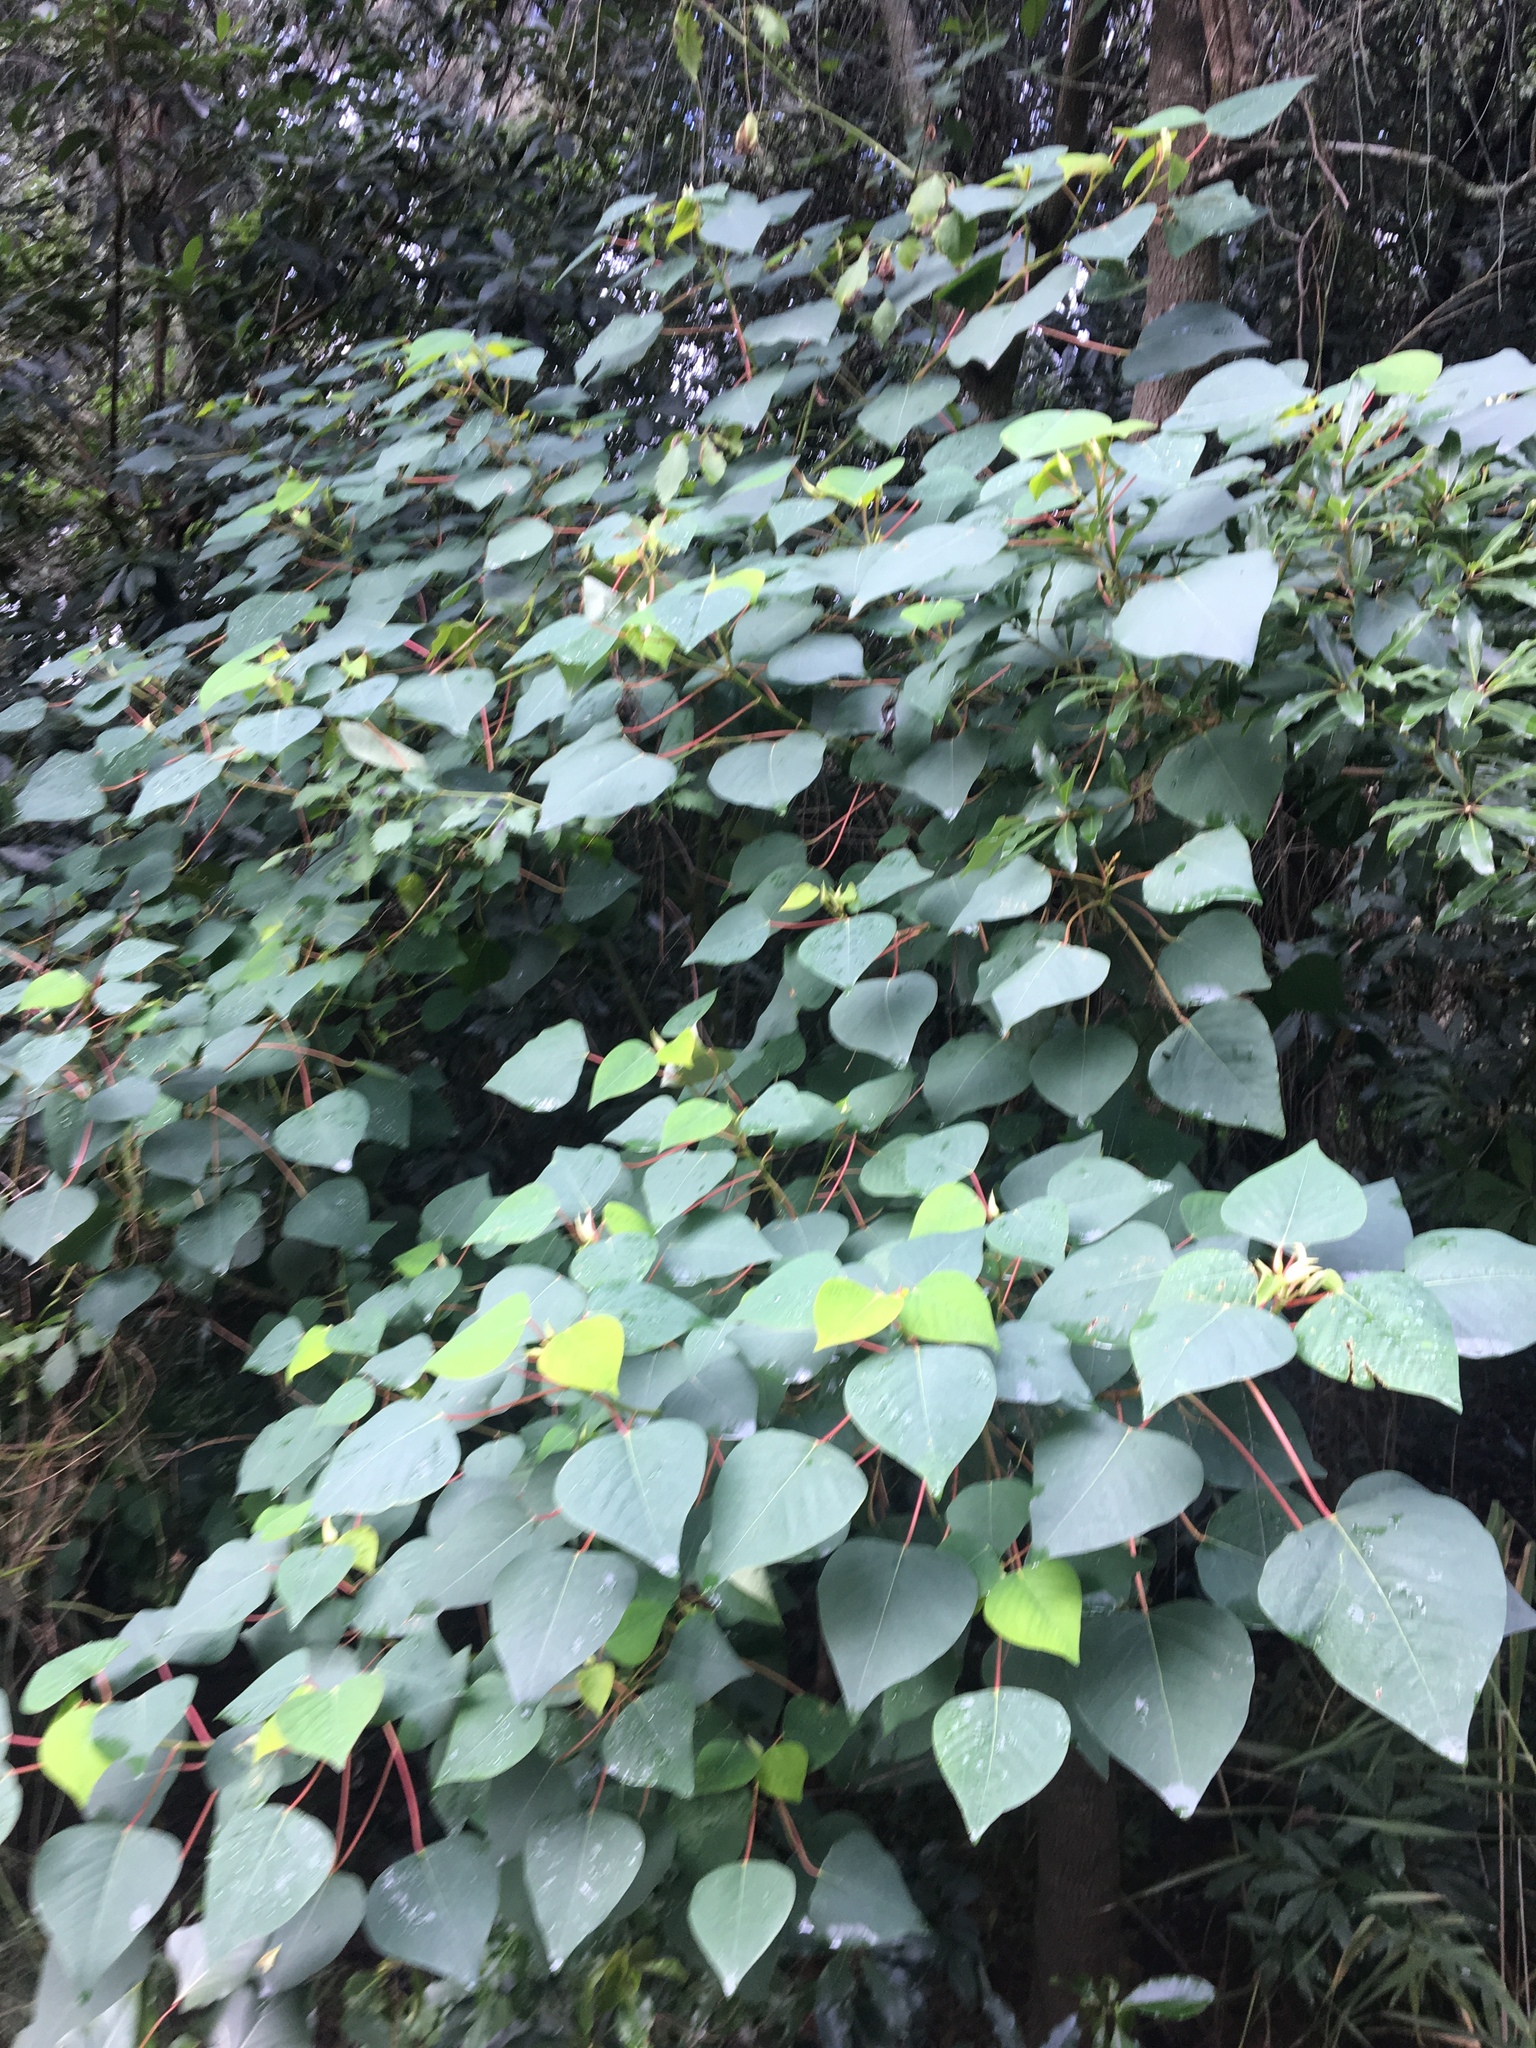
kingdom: Plantae
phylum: Tracheophyta
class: Magnoliopsida
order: Malpighiales
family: Euphorbiaceae
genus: Homalanthus
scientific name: Homalanthus populifolius
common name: Queensland poplar
